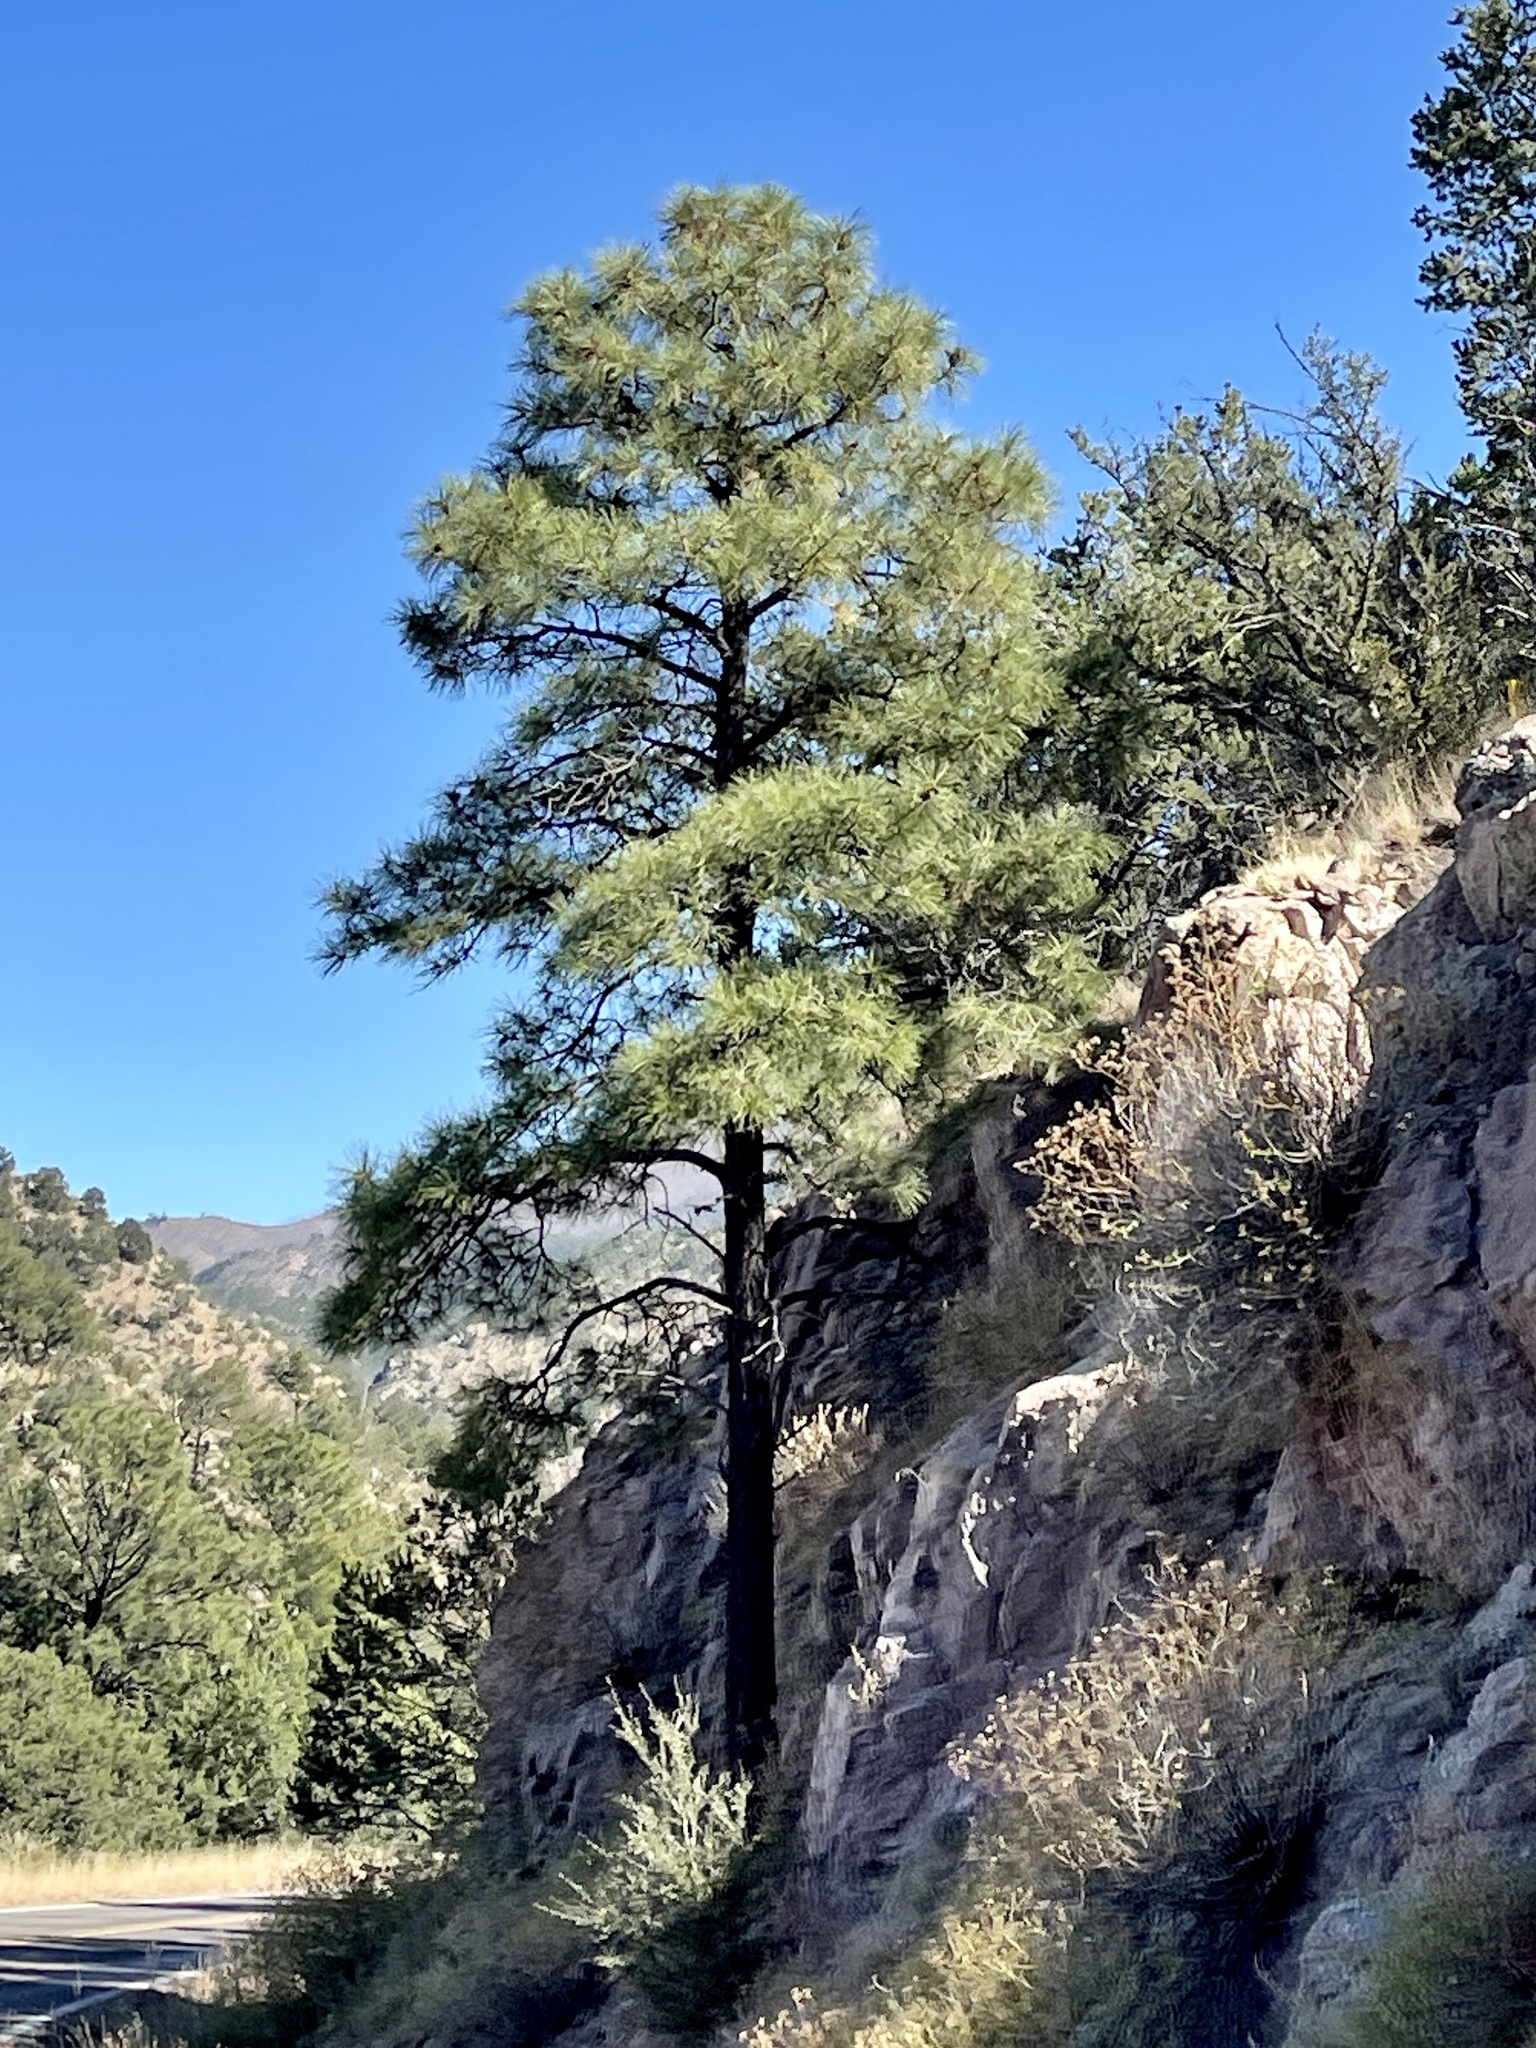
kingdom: Plantae
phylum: Tracheophyta
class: Pinopsida
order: Pinales
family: Pinaceae
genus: Pinus
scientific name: Pinus ponderosa
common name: Western yellow-pine
